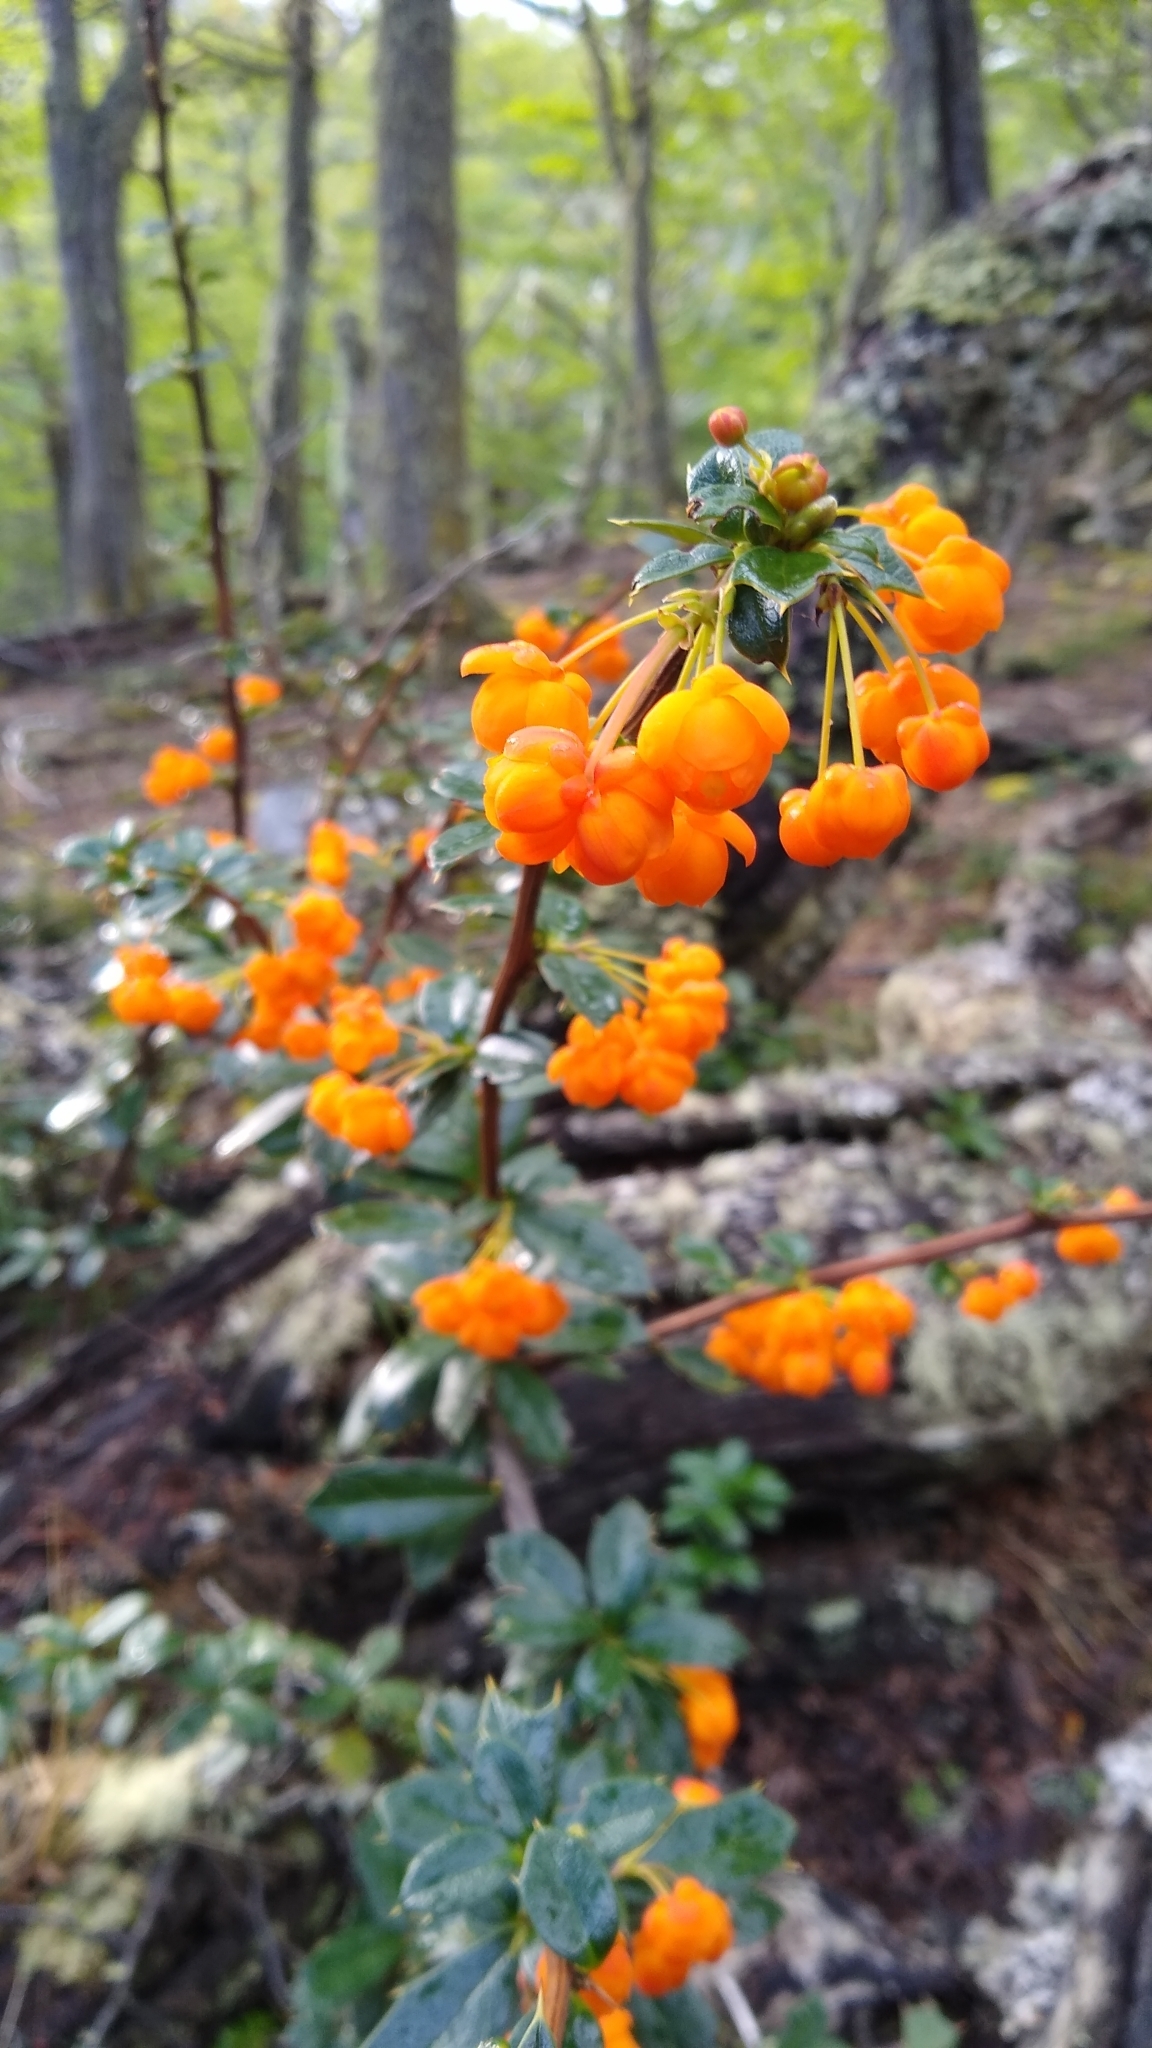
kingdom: Plantae
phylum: Tracheophyta
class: Magnoliopsida
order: Ranunculales
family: Berberidaceae
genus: Berberis
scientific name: Berberis ilicifolia
